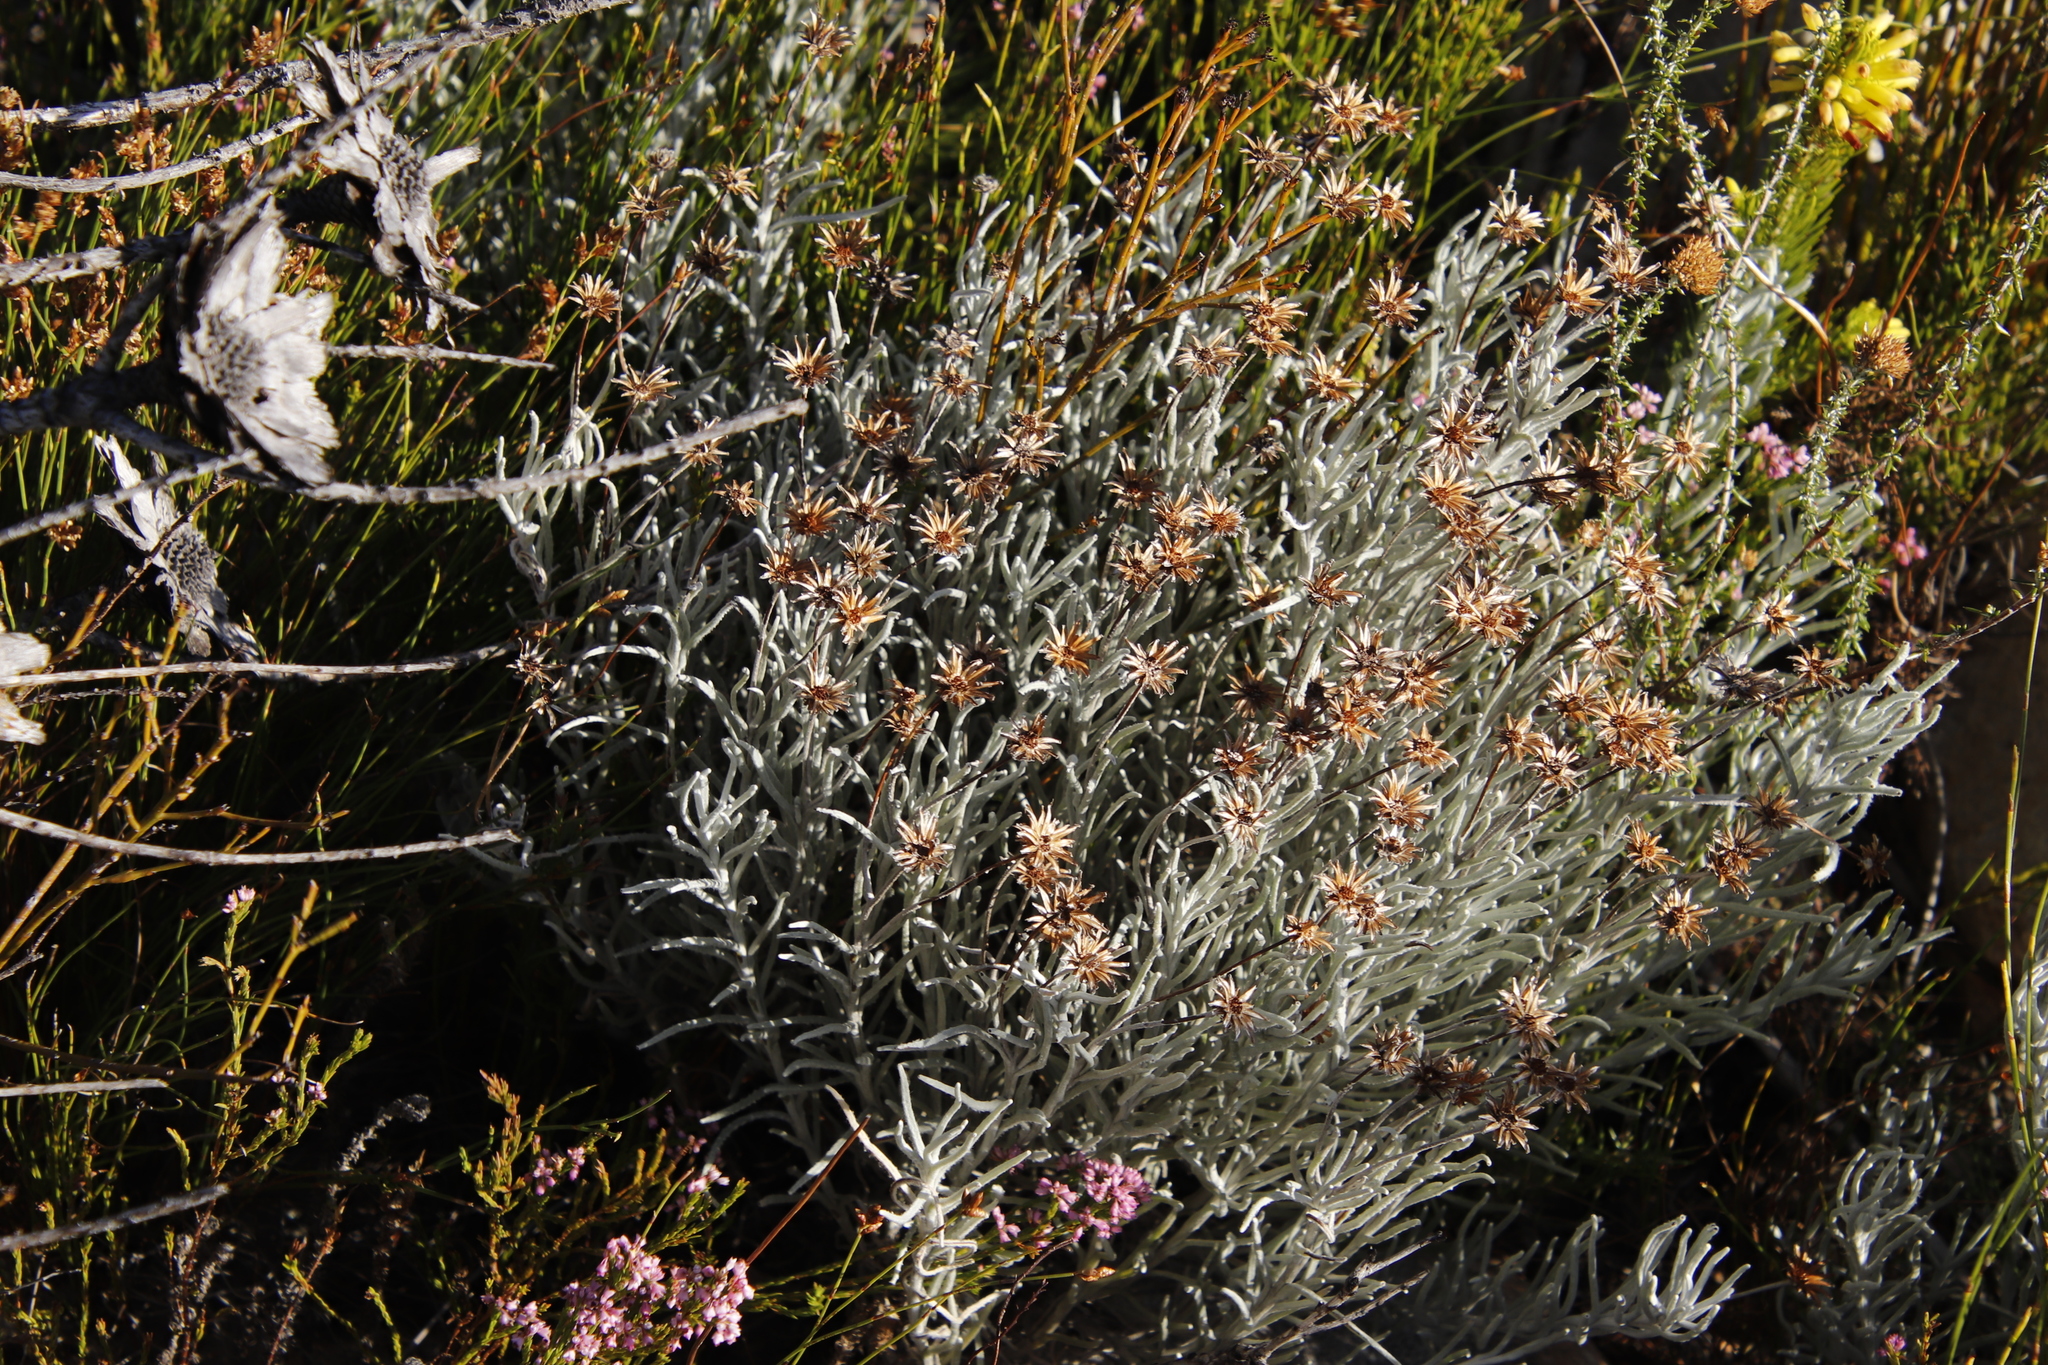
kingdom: Plantae
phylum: Tracheophyta
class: Magnoliopsida
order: Asterales
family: Asteraceae
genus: Syncarpha
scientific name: Syncarpha gnaphaloides
